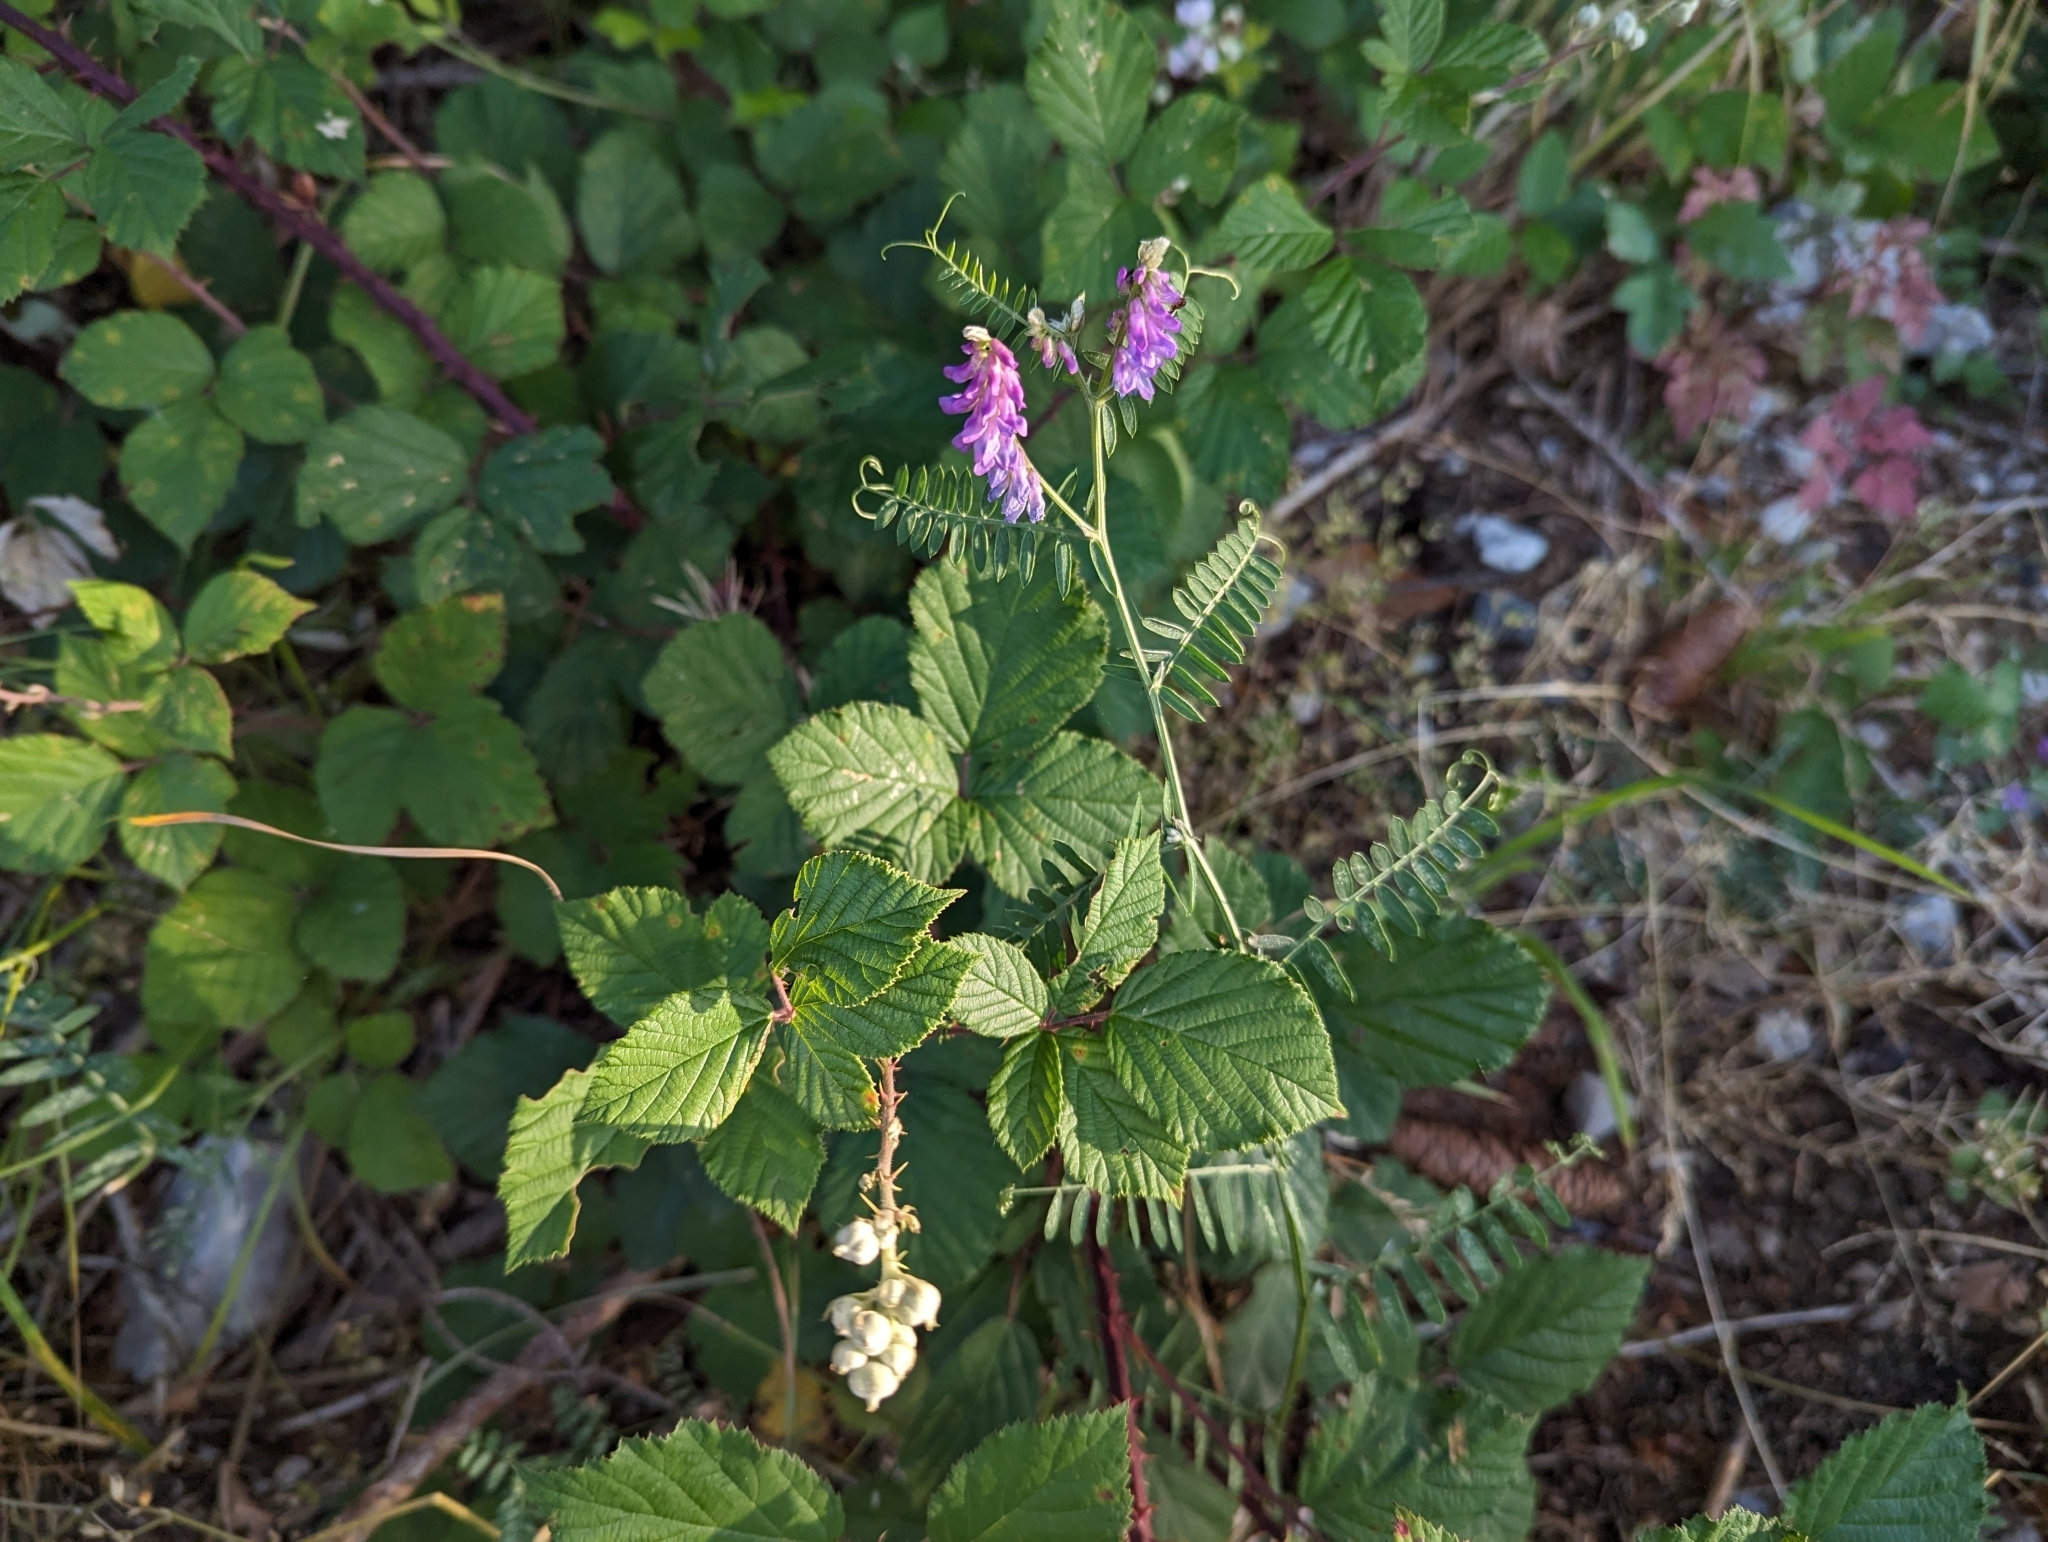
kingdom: Plantae
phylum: Tracheophyta
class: Magnoliopsida
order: Fabales
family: Fabaceae
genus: Vicia
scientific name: Vicia cracca
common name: Bird vetch
